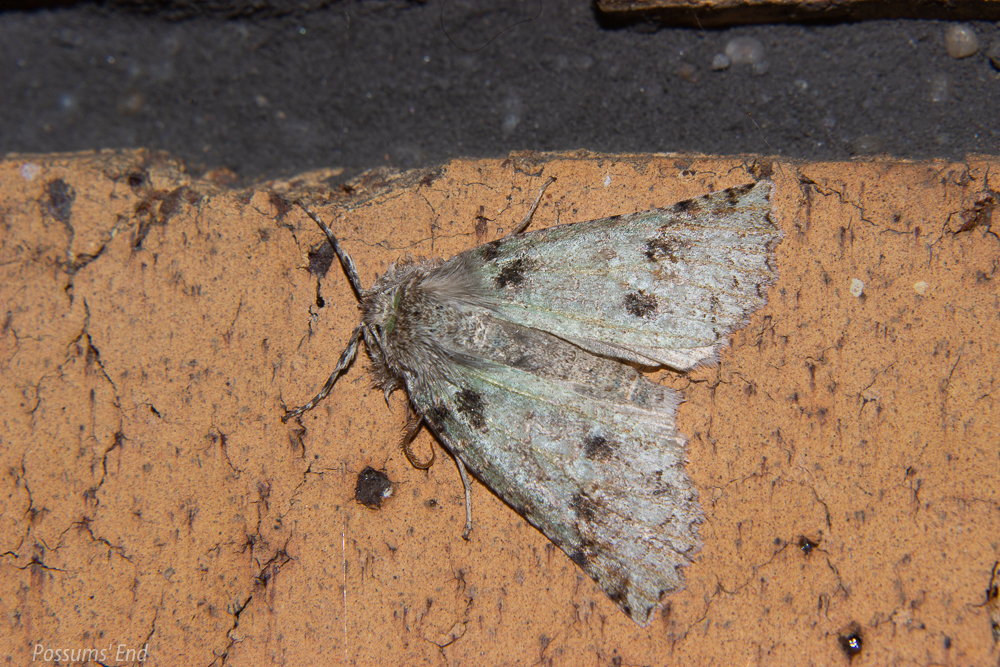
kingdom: Animalia
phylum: Arthropoda
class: Insecta
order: Lepidoptera
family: Geometridae
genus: Declana
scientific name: Declana floccosa
